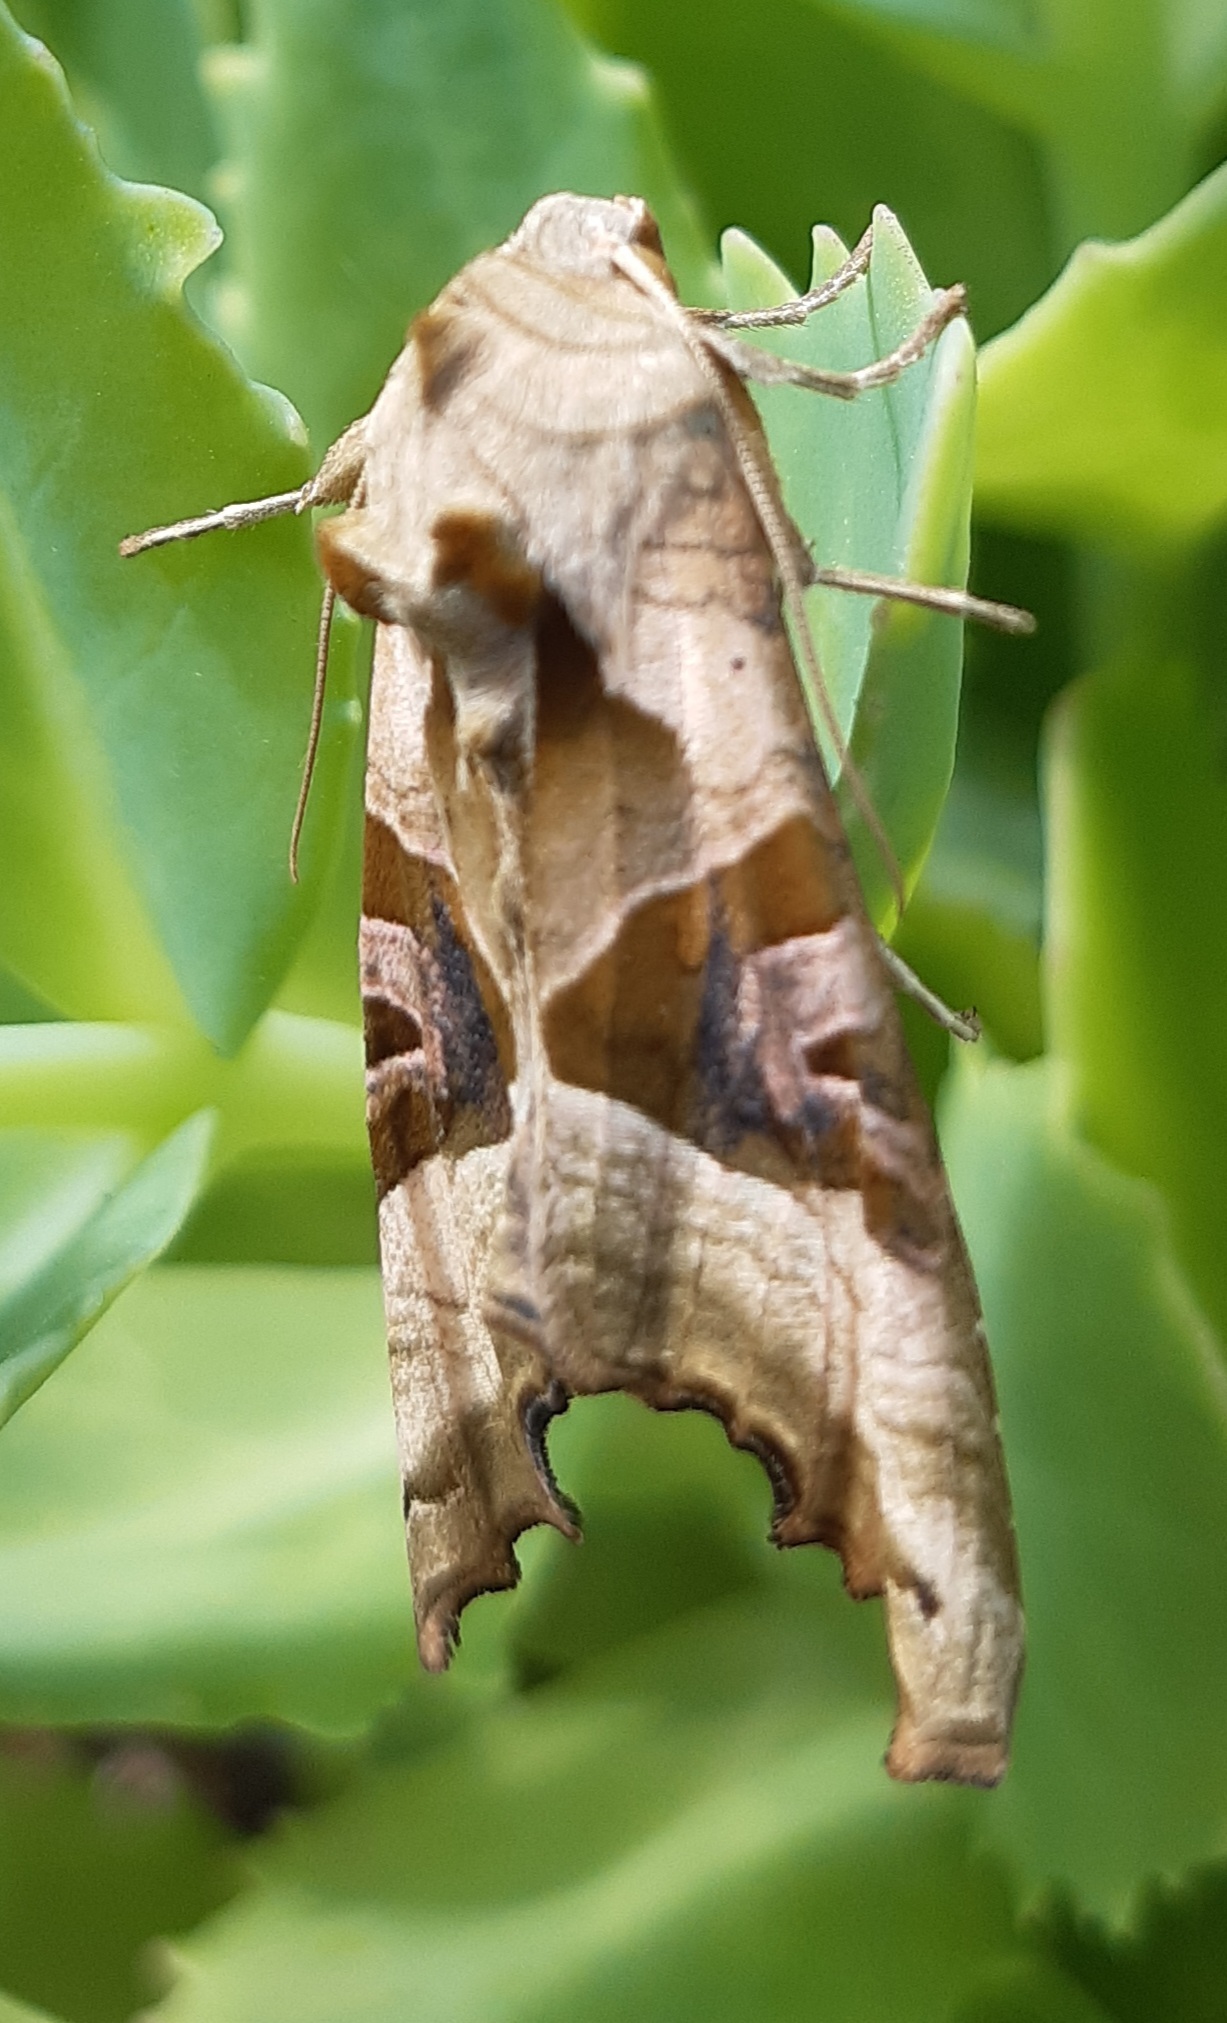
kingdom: Animalia
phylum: Arthropoda
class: Insecta
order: Lepidoptera
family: Noctuidae
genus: Phlogophora
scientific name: Phlogophora meticulosa
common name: Angle shades
